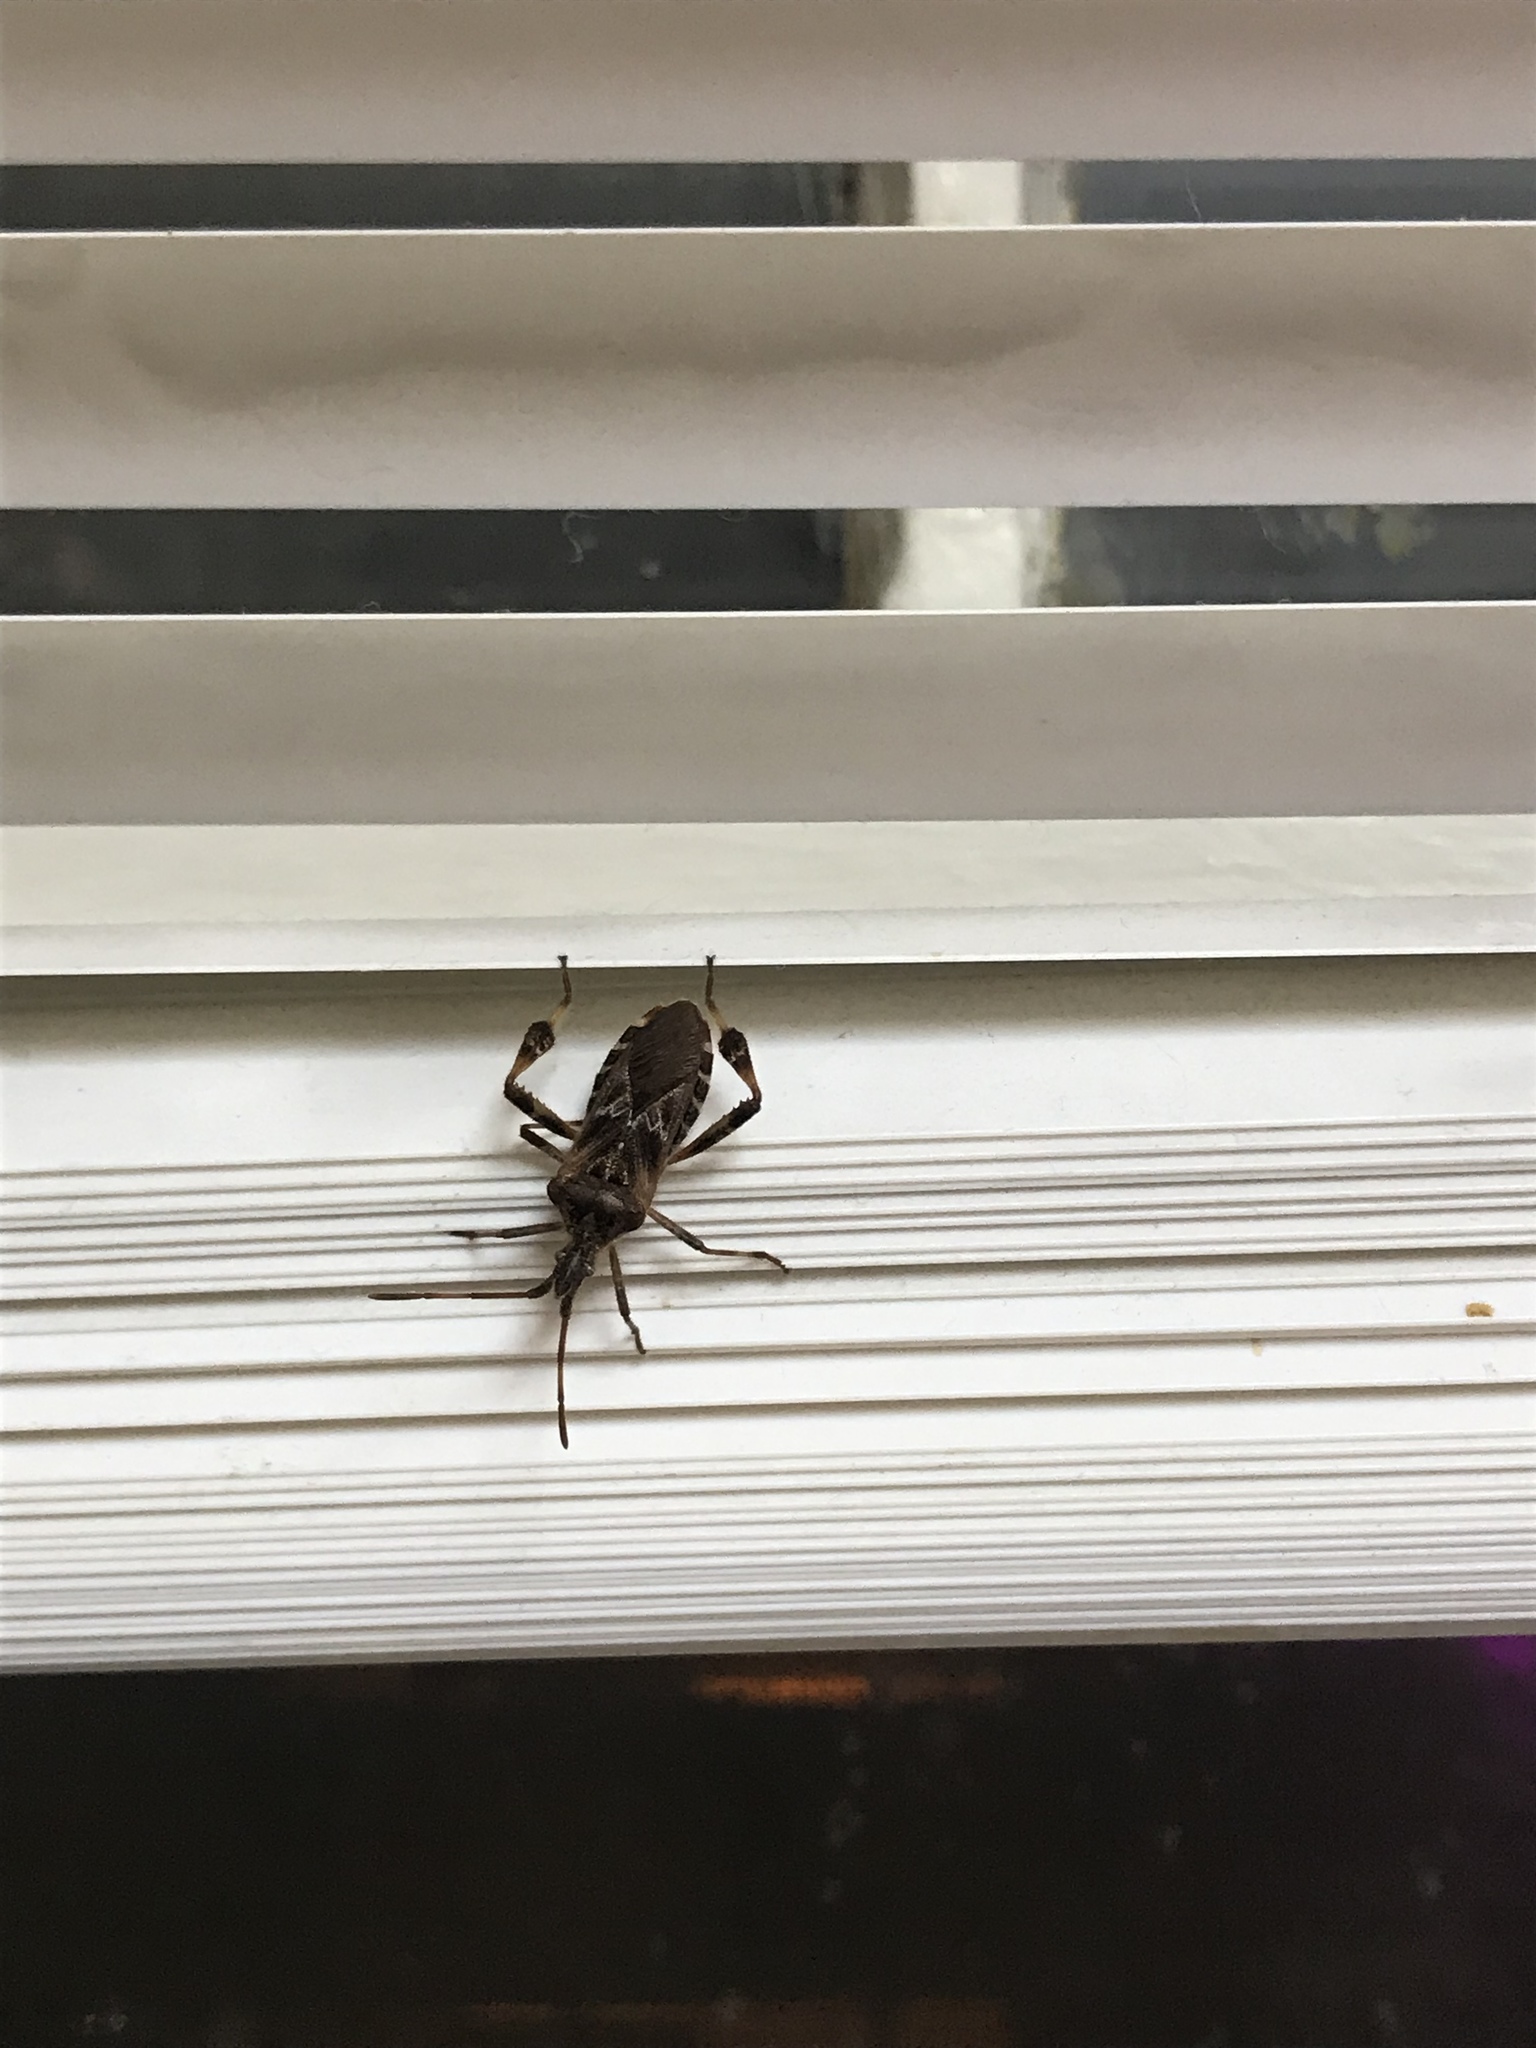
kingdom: Animalia
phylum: Arthropoda
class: Insecta
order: Hemiptera
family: Coreidae
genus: Leptoglossus
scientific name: Leptoglossus occidentalis
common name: Western conifer-seed bug
